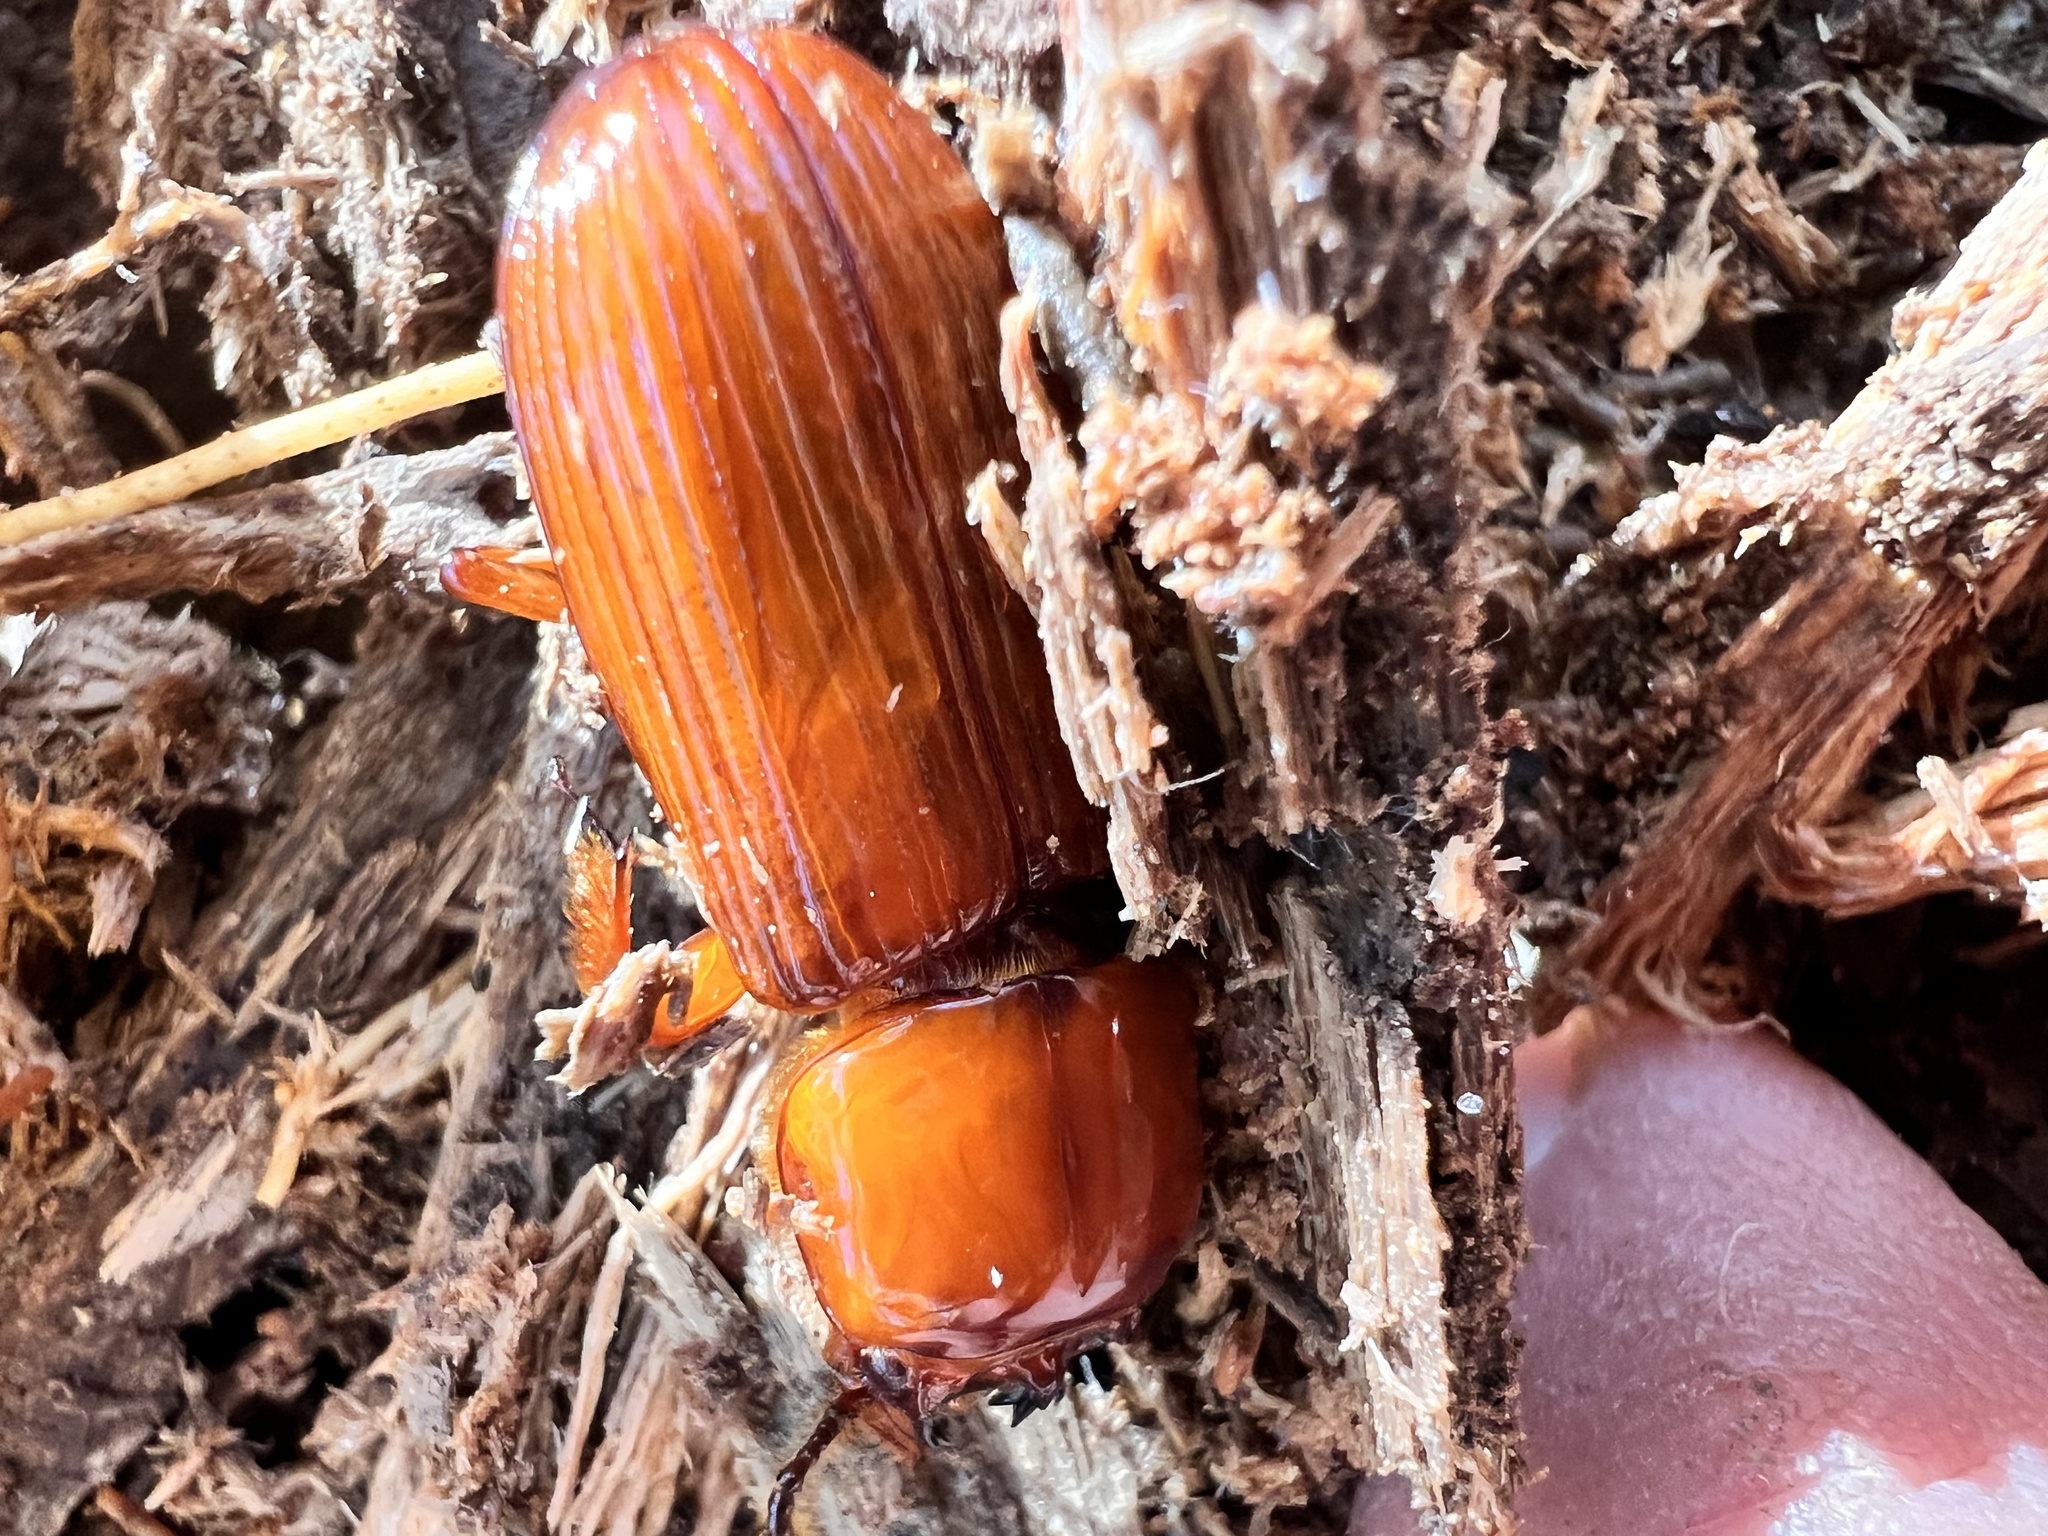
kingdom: Animalia
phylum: Arthropoda
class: Insecta
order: Coleoptera
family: Passalidae
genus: Odontotaenius
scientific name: Odontotaenius disjunctus
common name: Patent leather beetle
